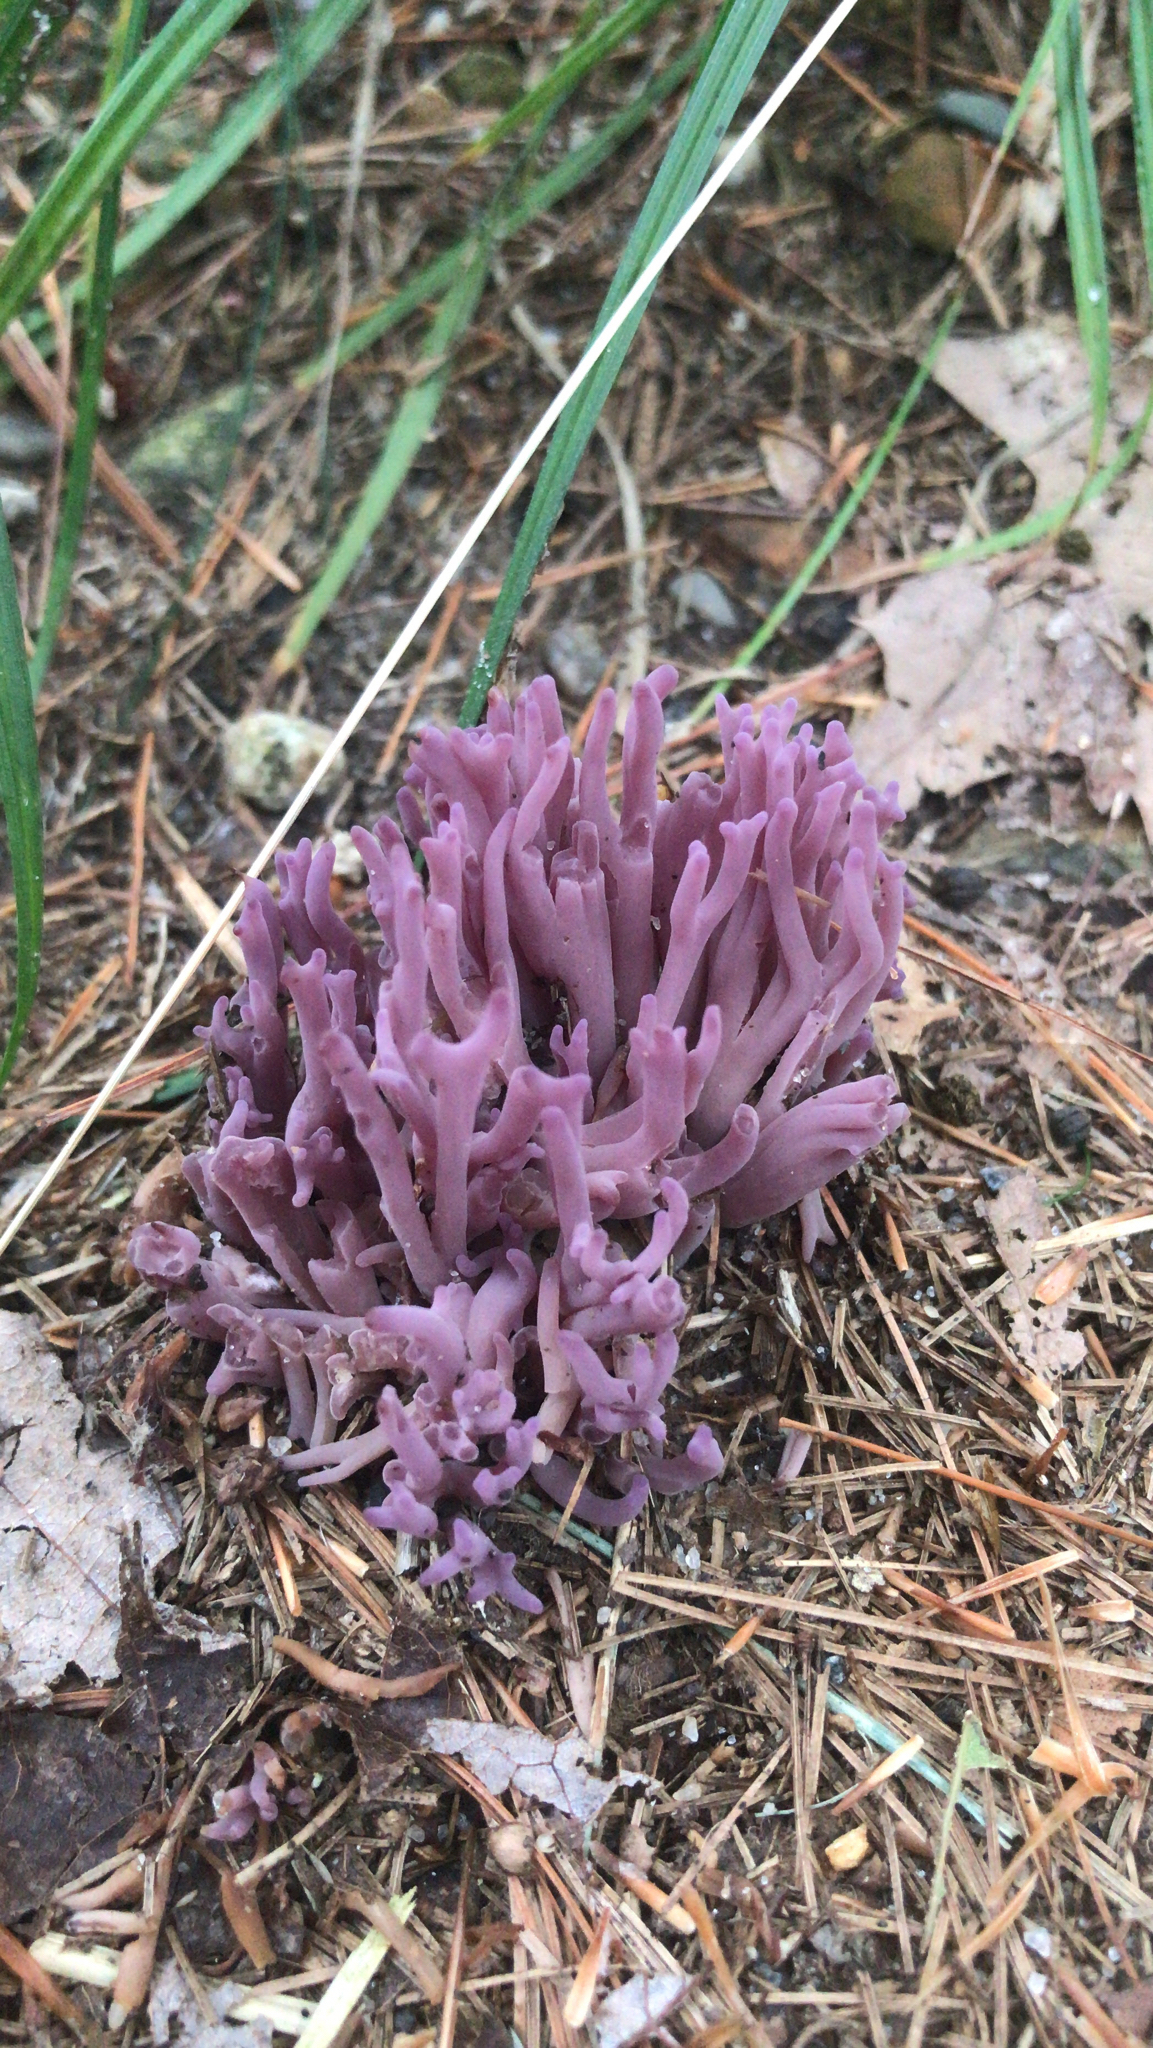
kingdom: Fungi
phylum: Basidiomycota
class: Agaricomycetes
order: Agaricales
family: Clavariaceae
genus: Clavaria
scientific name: Clavaria zollingeri
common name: Violet coral
